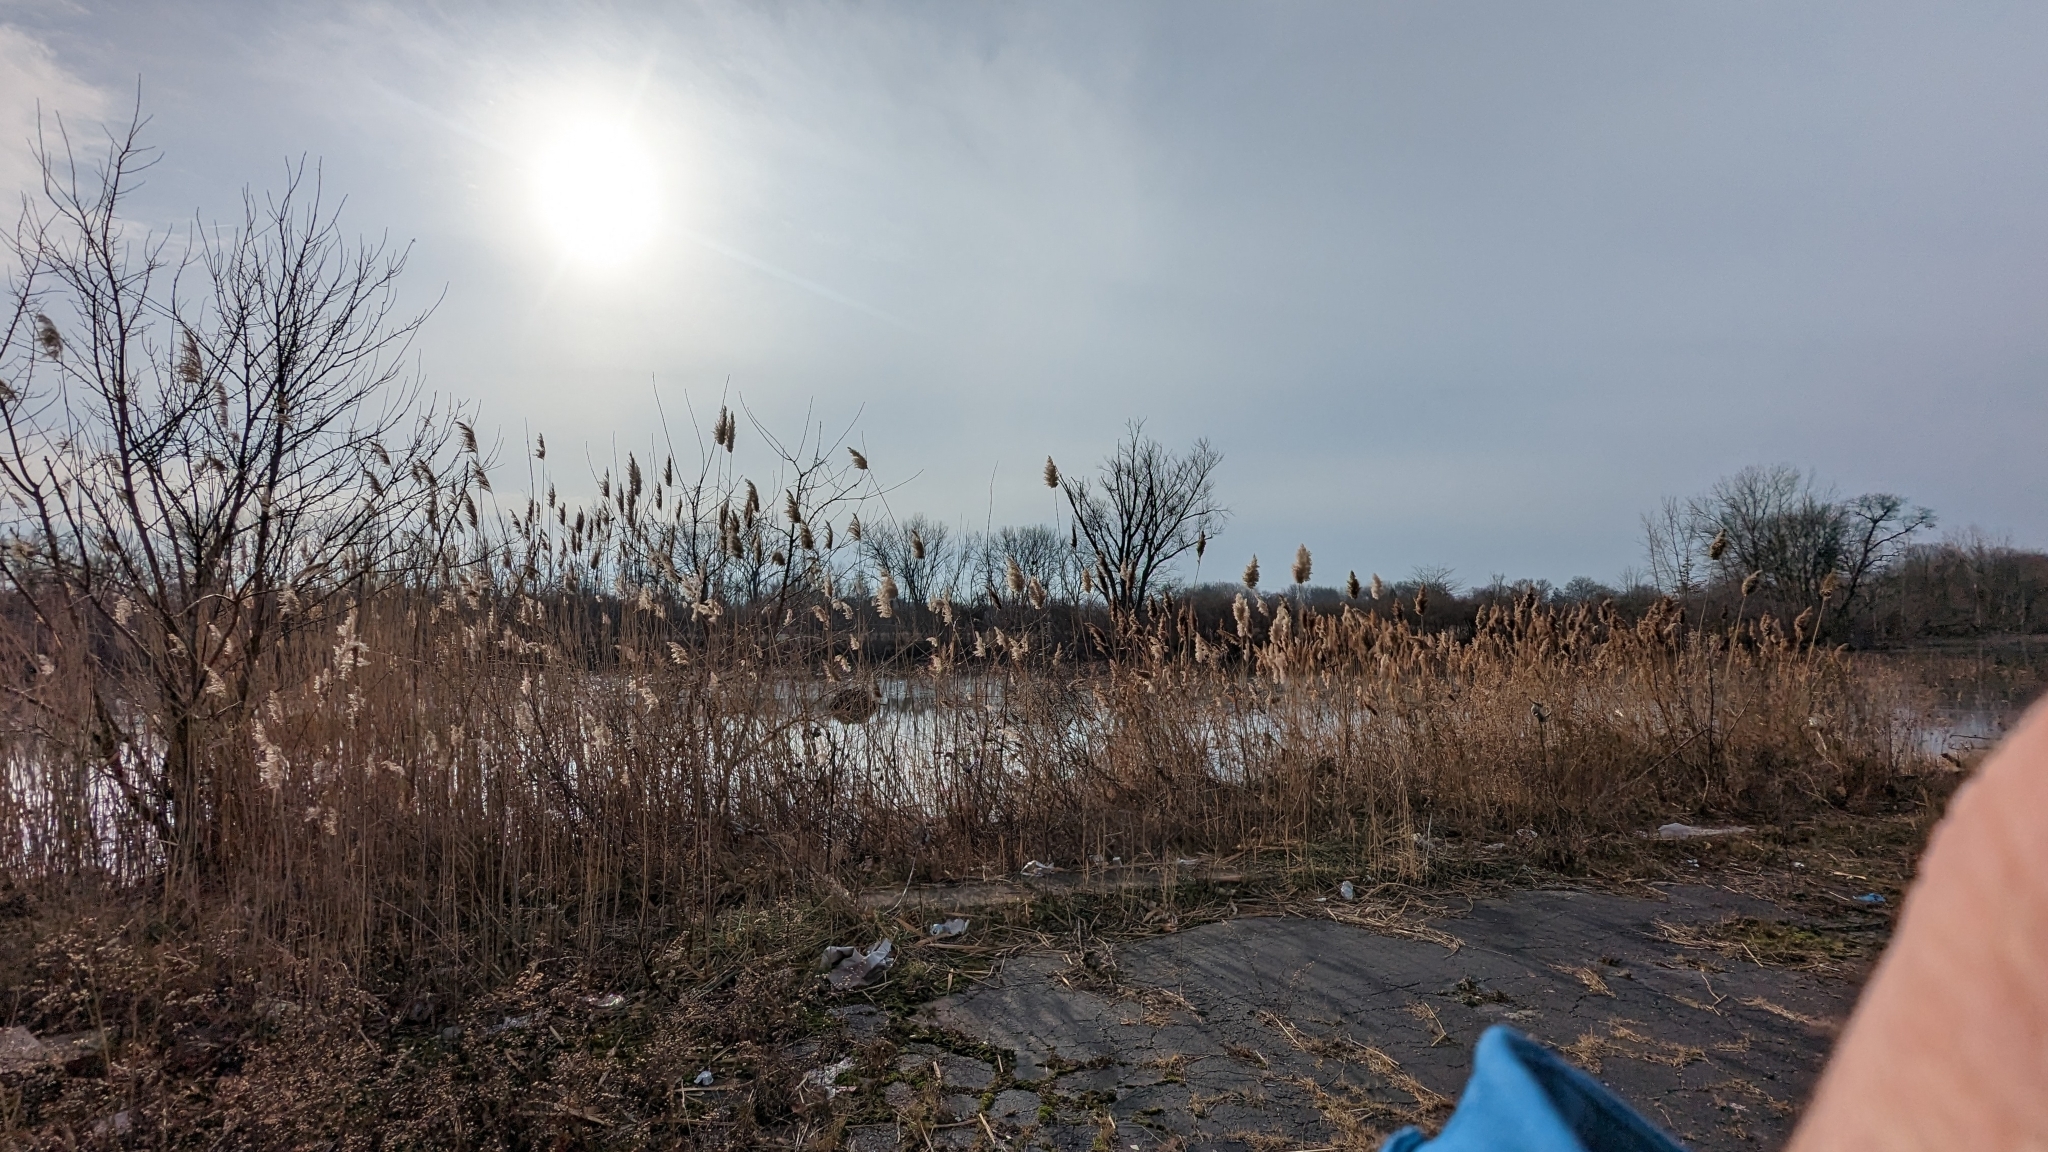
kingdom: Animalia
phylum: Chordata
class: Aves
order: Accipitriformes
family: Accipitridae
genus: Haliaeetus
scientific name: Haliaeetus leucocephalus
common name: Bald eagle
